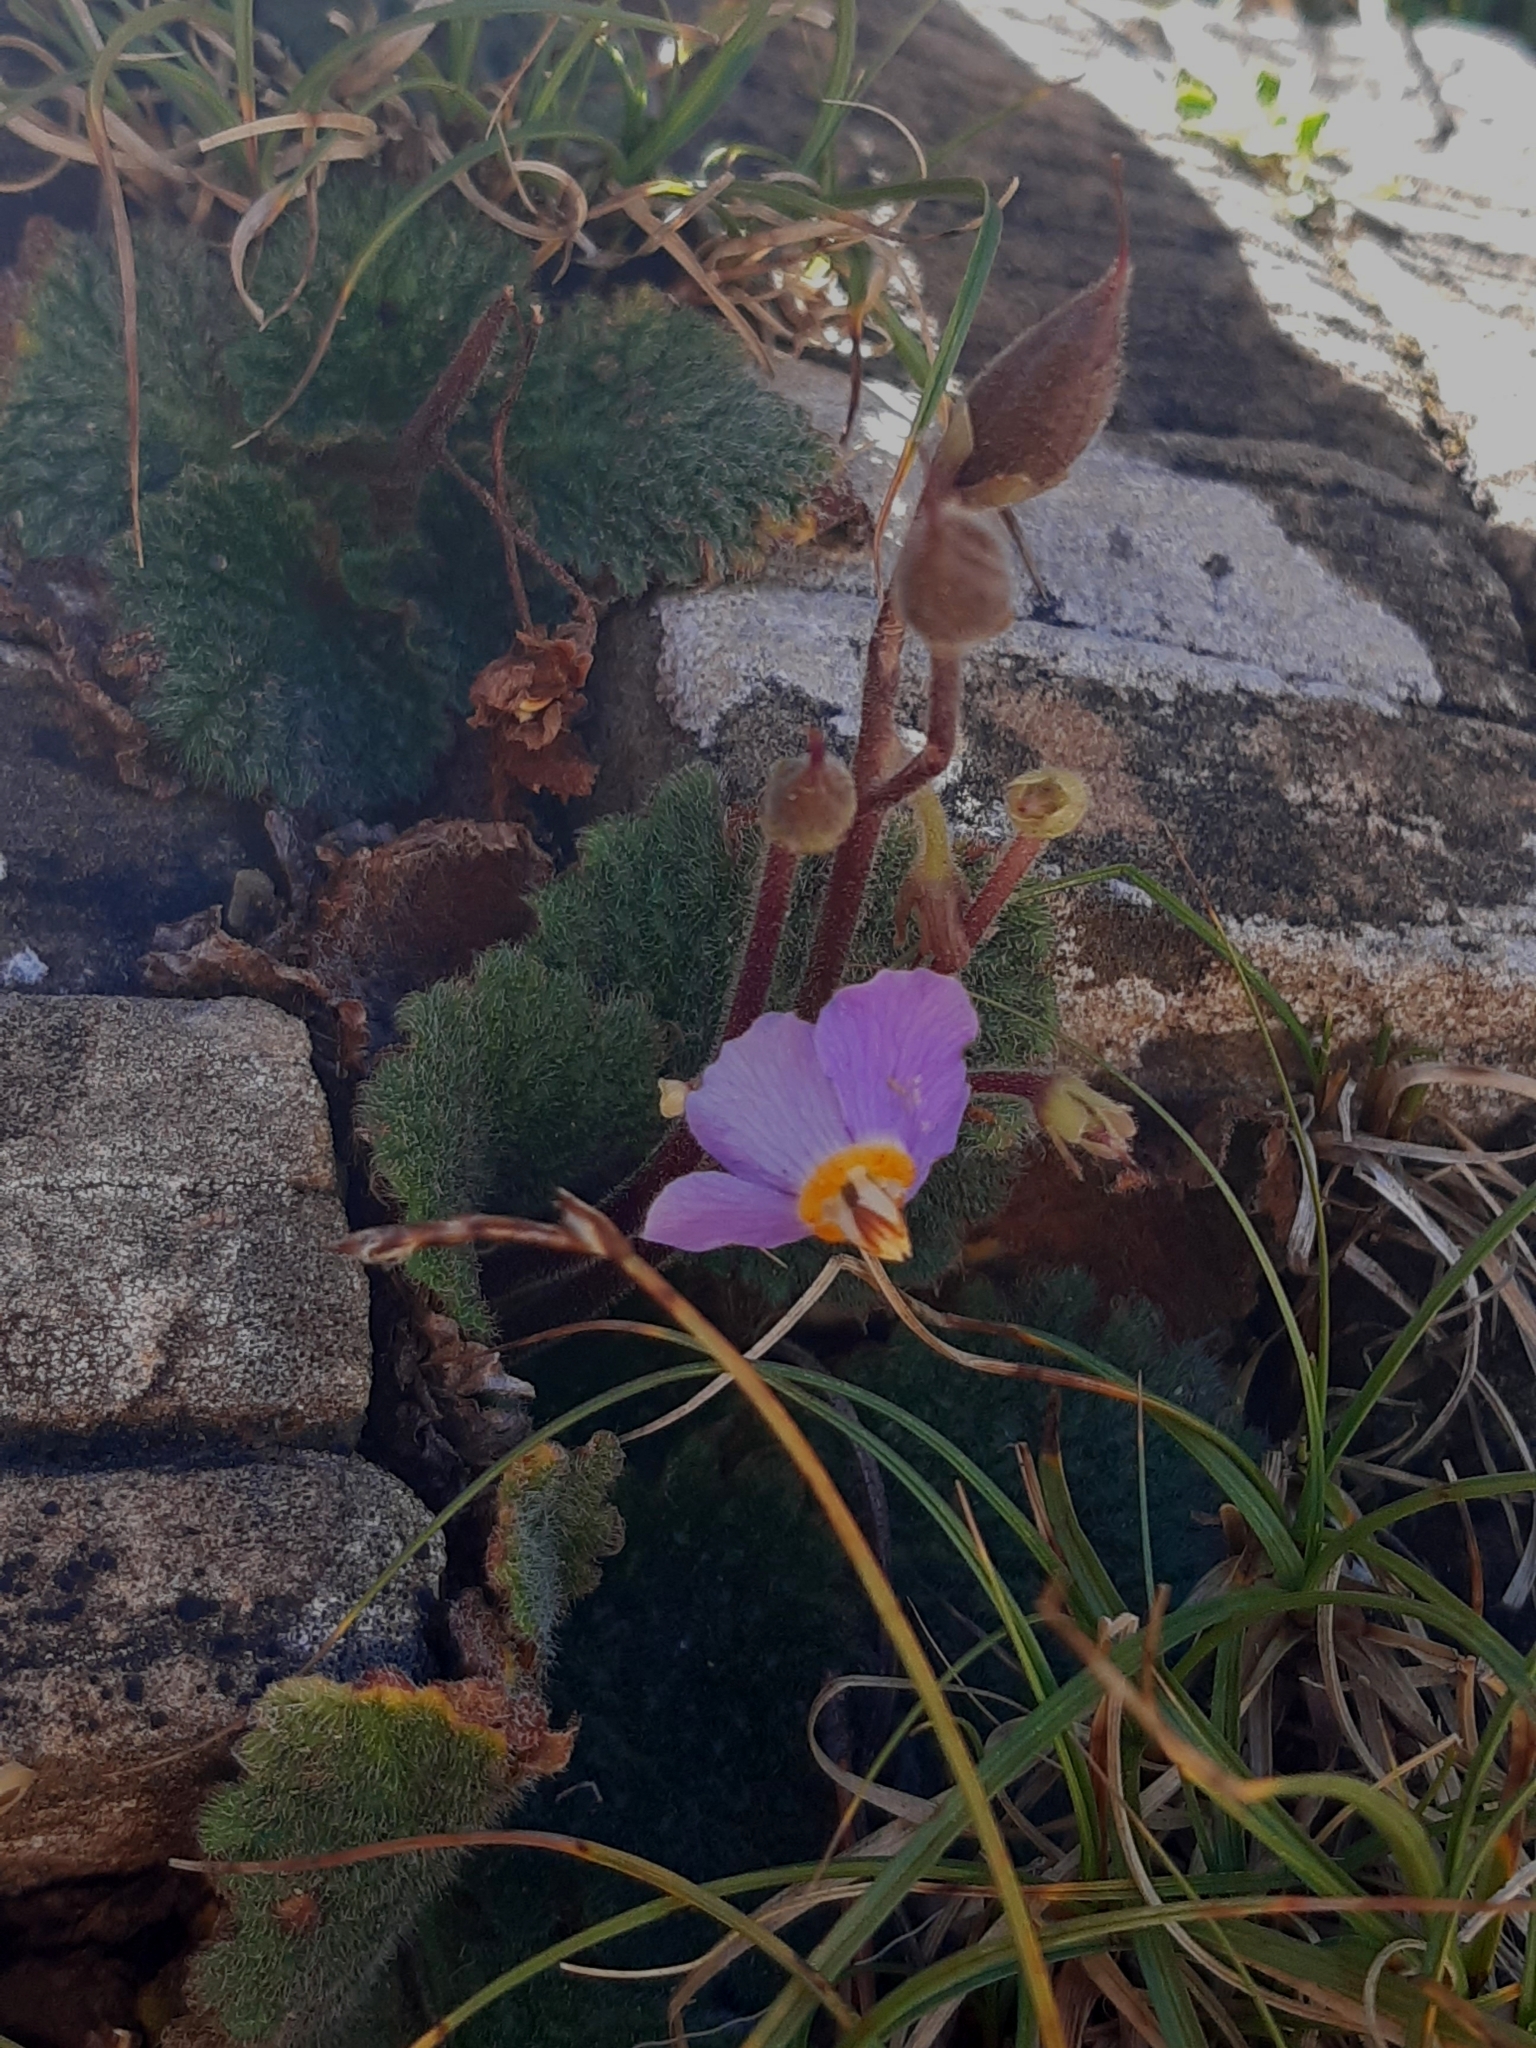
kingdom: Plantae
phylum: Tracheophyta
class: Magnoliopsida
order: Lamiales
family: Gesneriaceae
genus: Ramonda
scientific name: Ramonda myconi
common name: Pyrenean-violet
